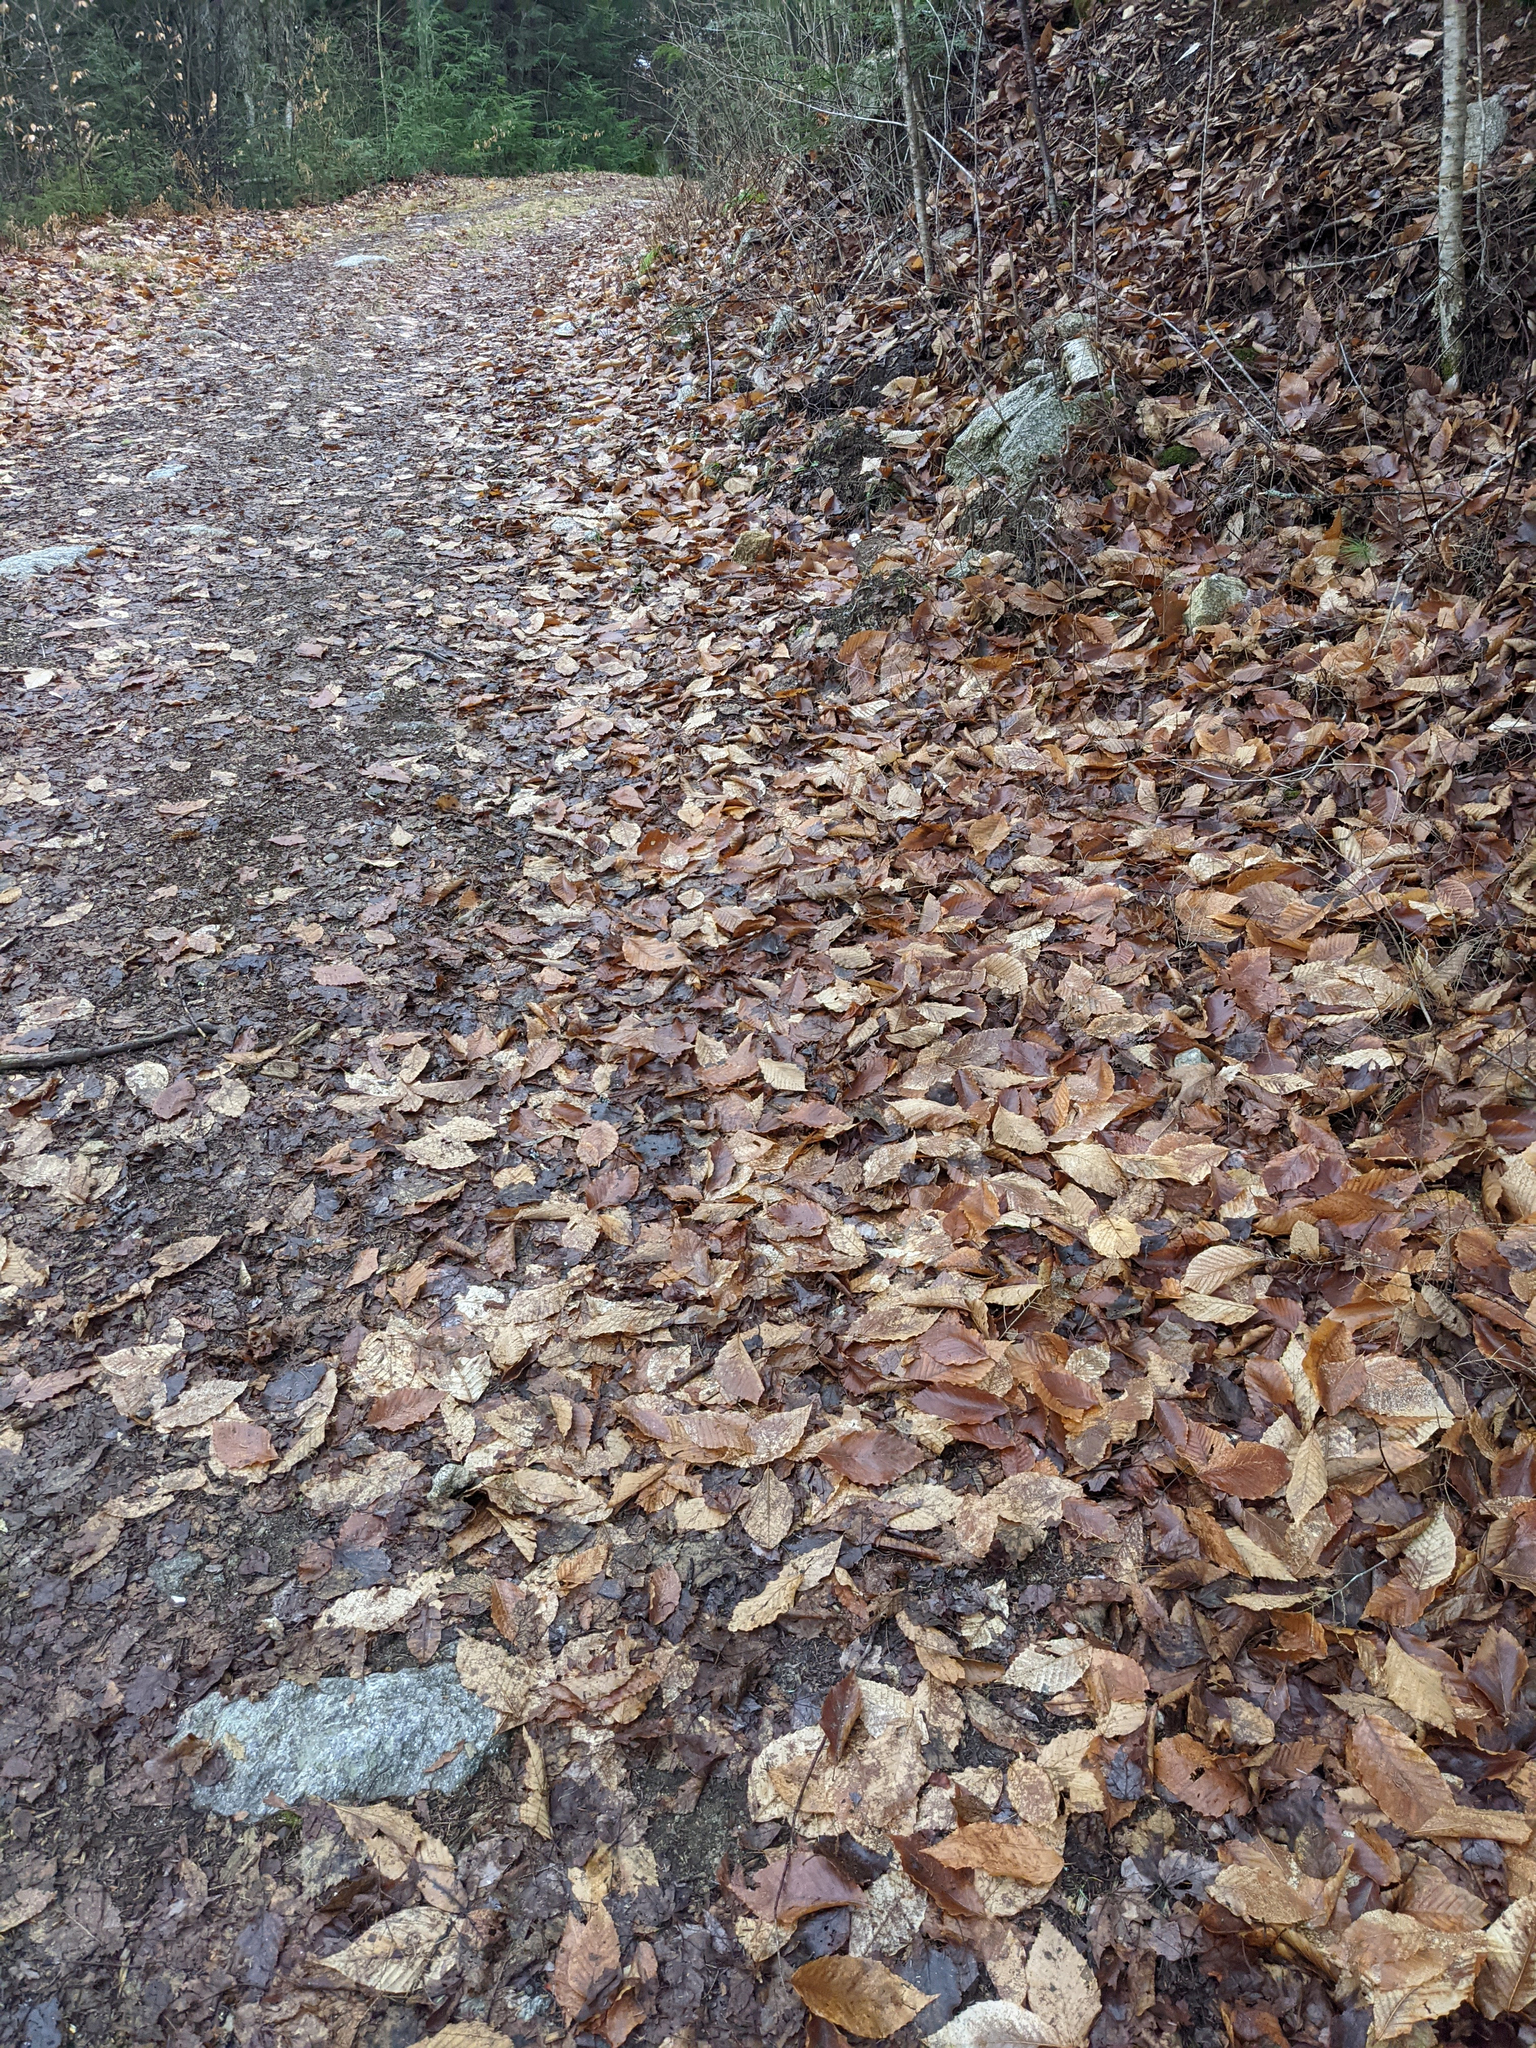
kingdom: Plantae
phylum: Tracheophyta
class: Magnoliopsida
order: Fagales
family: Fagaceae
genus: Fagus
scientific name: Fagus grandifolia
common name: American beech
